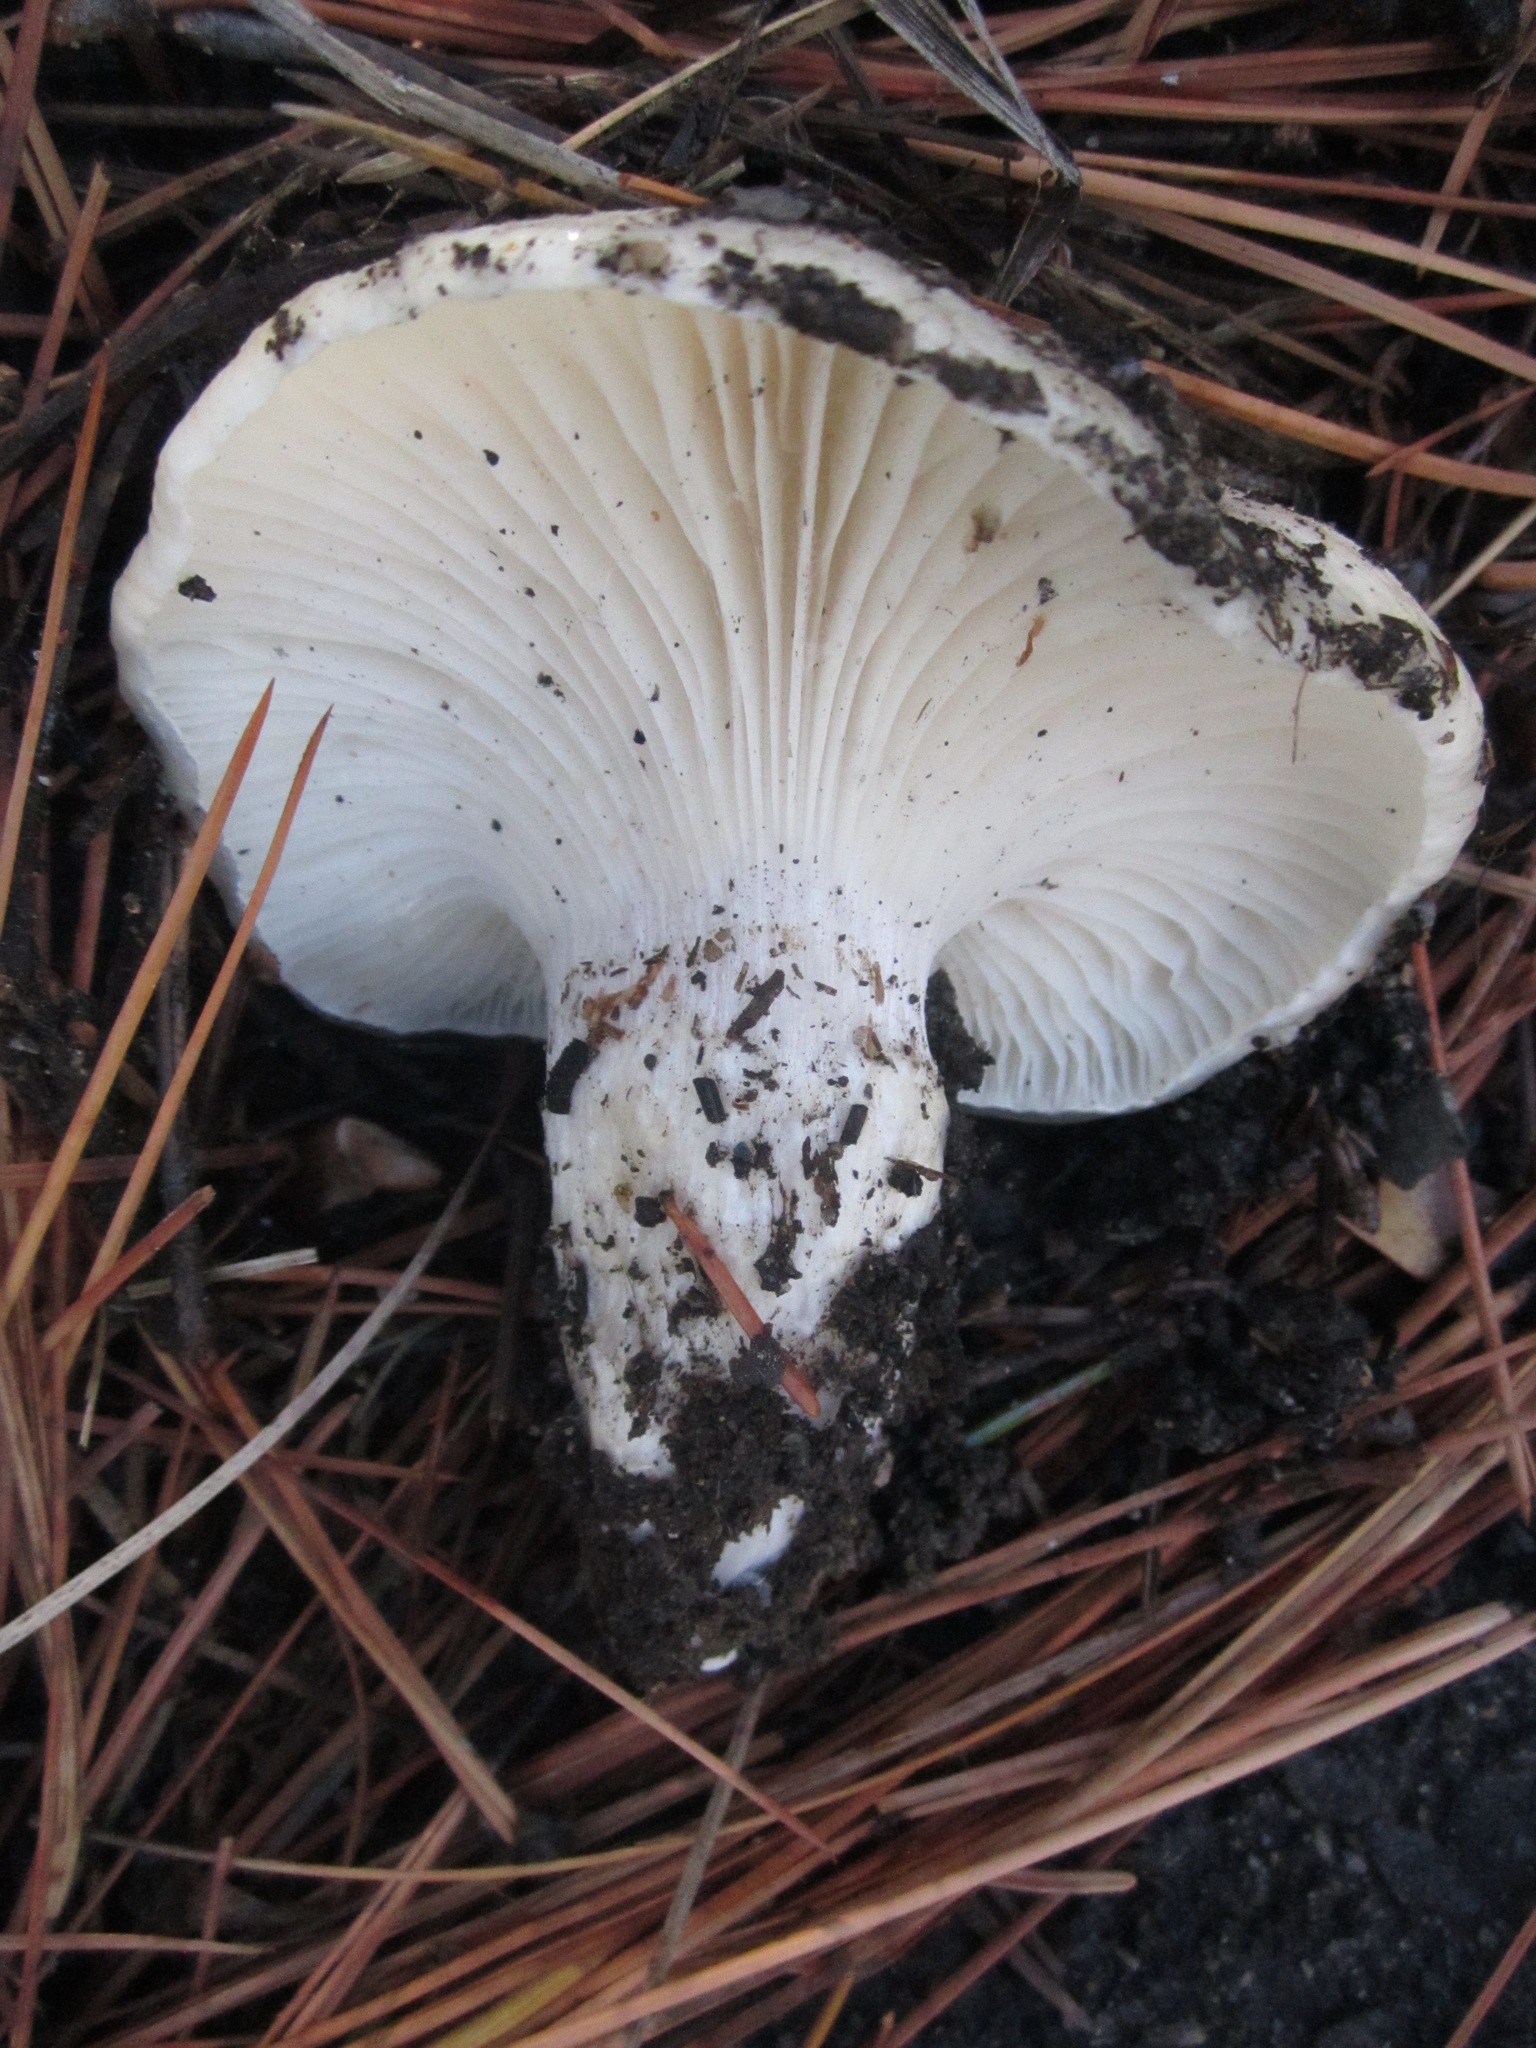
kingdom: Fungi
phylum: Basidiomycota
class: Agaricomycetes
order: Agaricales
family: Hygrophoraceae
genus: Hygrophorus
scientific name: Hygrophorus ligatus
